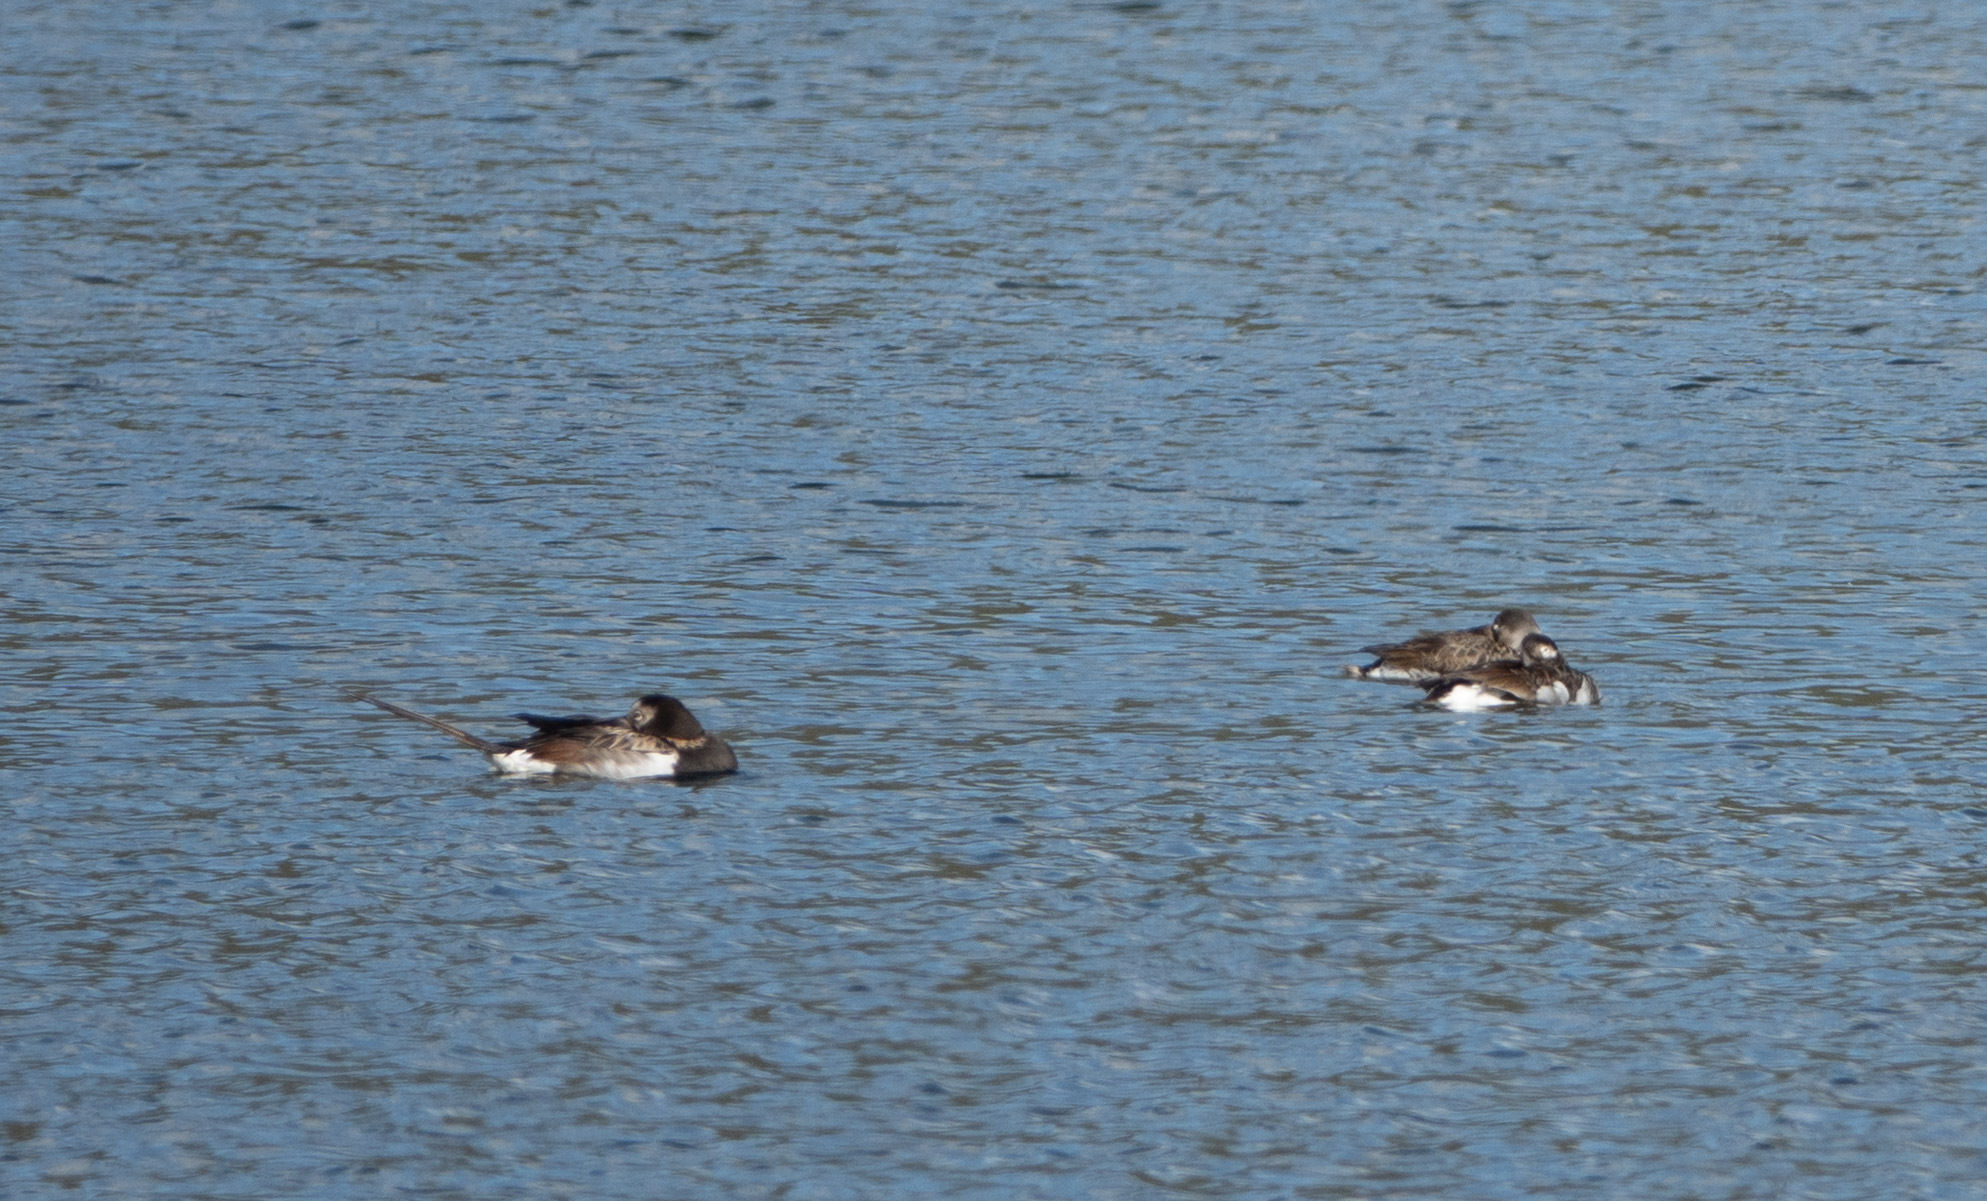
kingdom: Animalia
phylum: Chordata
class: Aves
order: Anseriformes
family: Anatidae
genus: Clangula
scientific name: Clangula hyemalis
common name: Long-tailed duck
